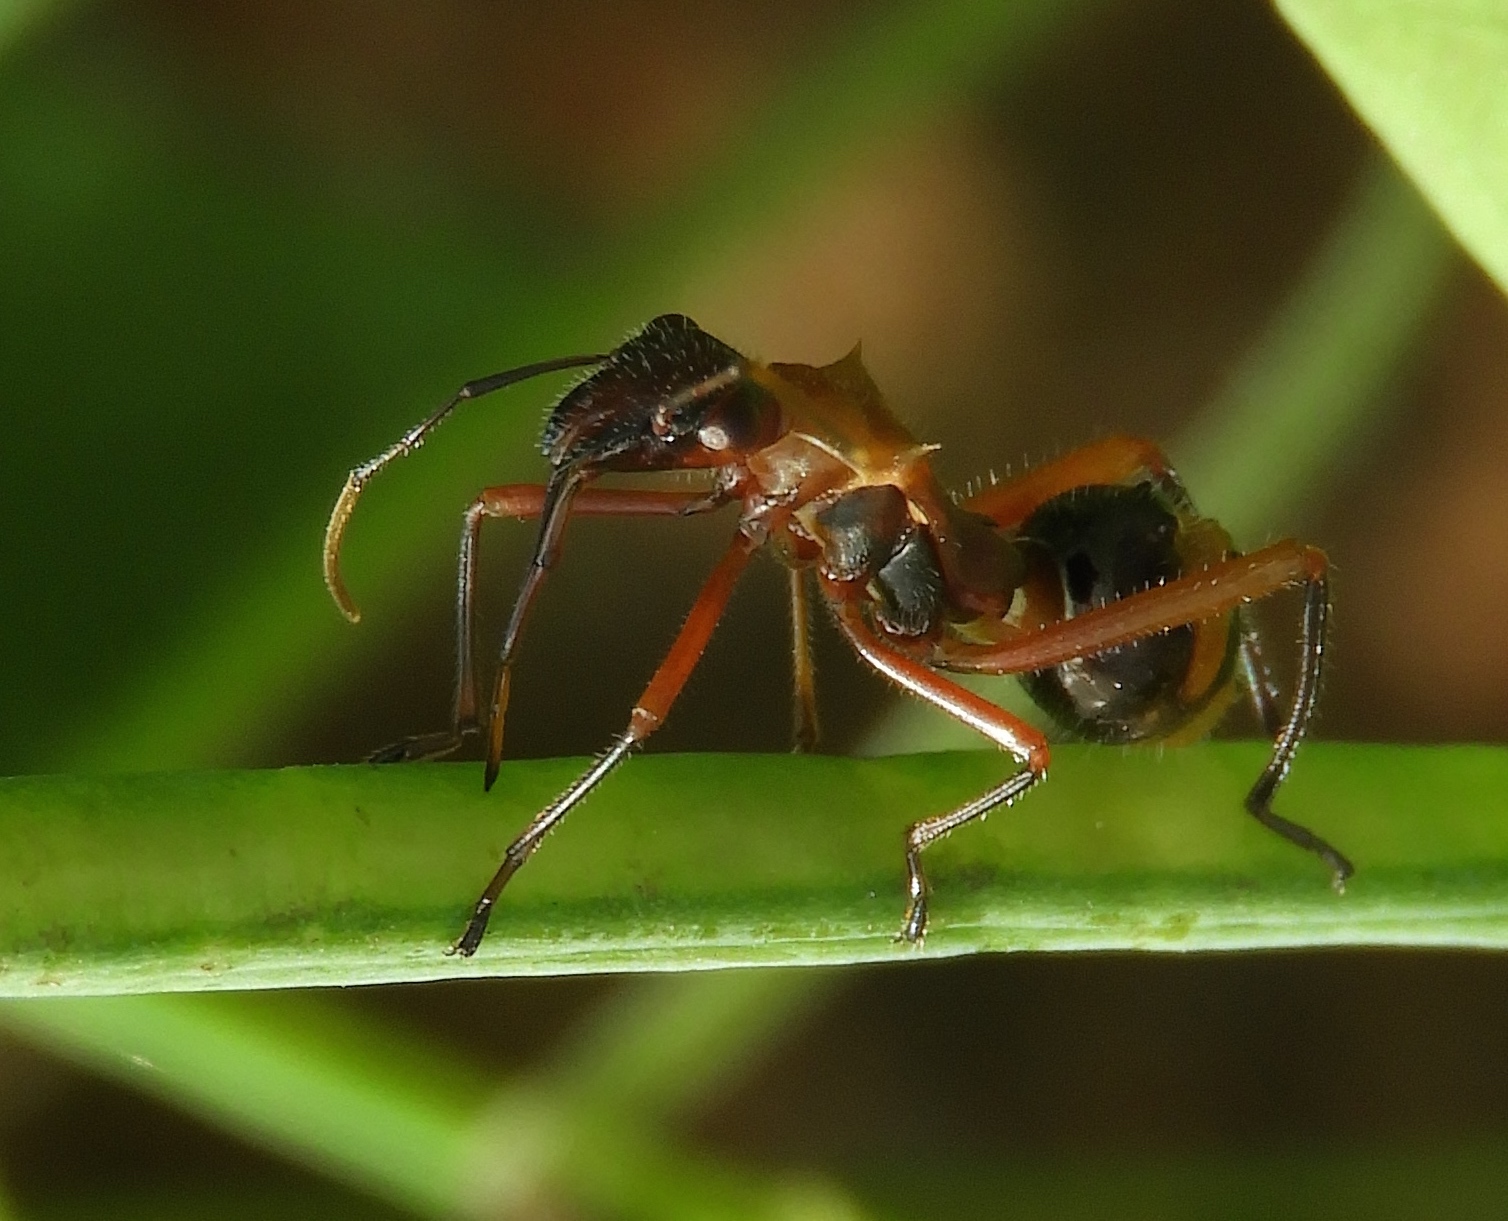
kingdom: Animalia
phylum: Arthropoda
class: Insecta
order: Hemiptera
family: Alydidae
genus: Hyalymenus
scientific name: Hyalymenus
